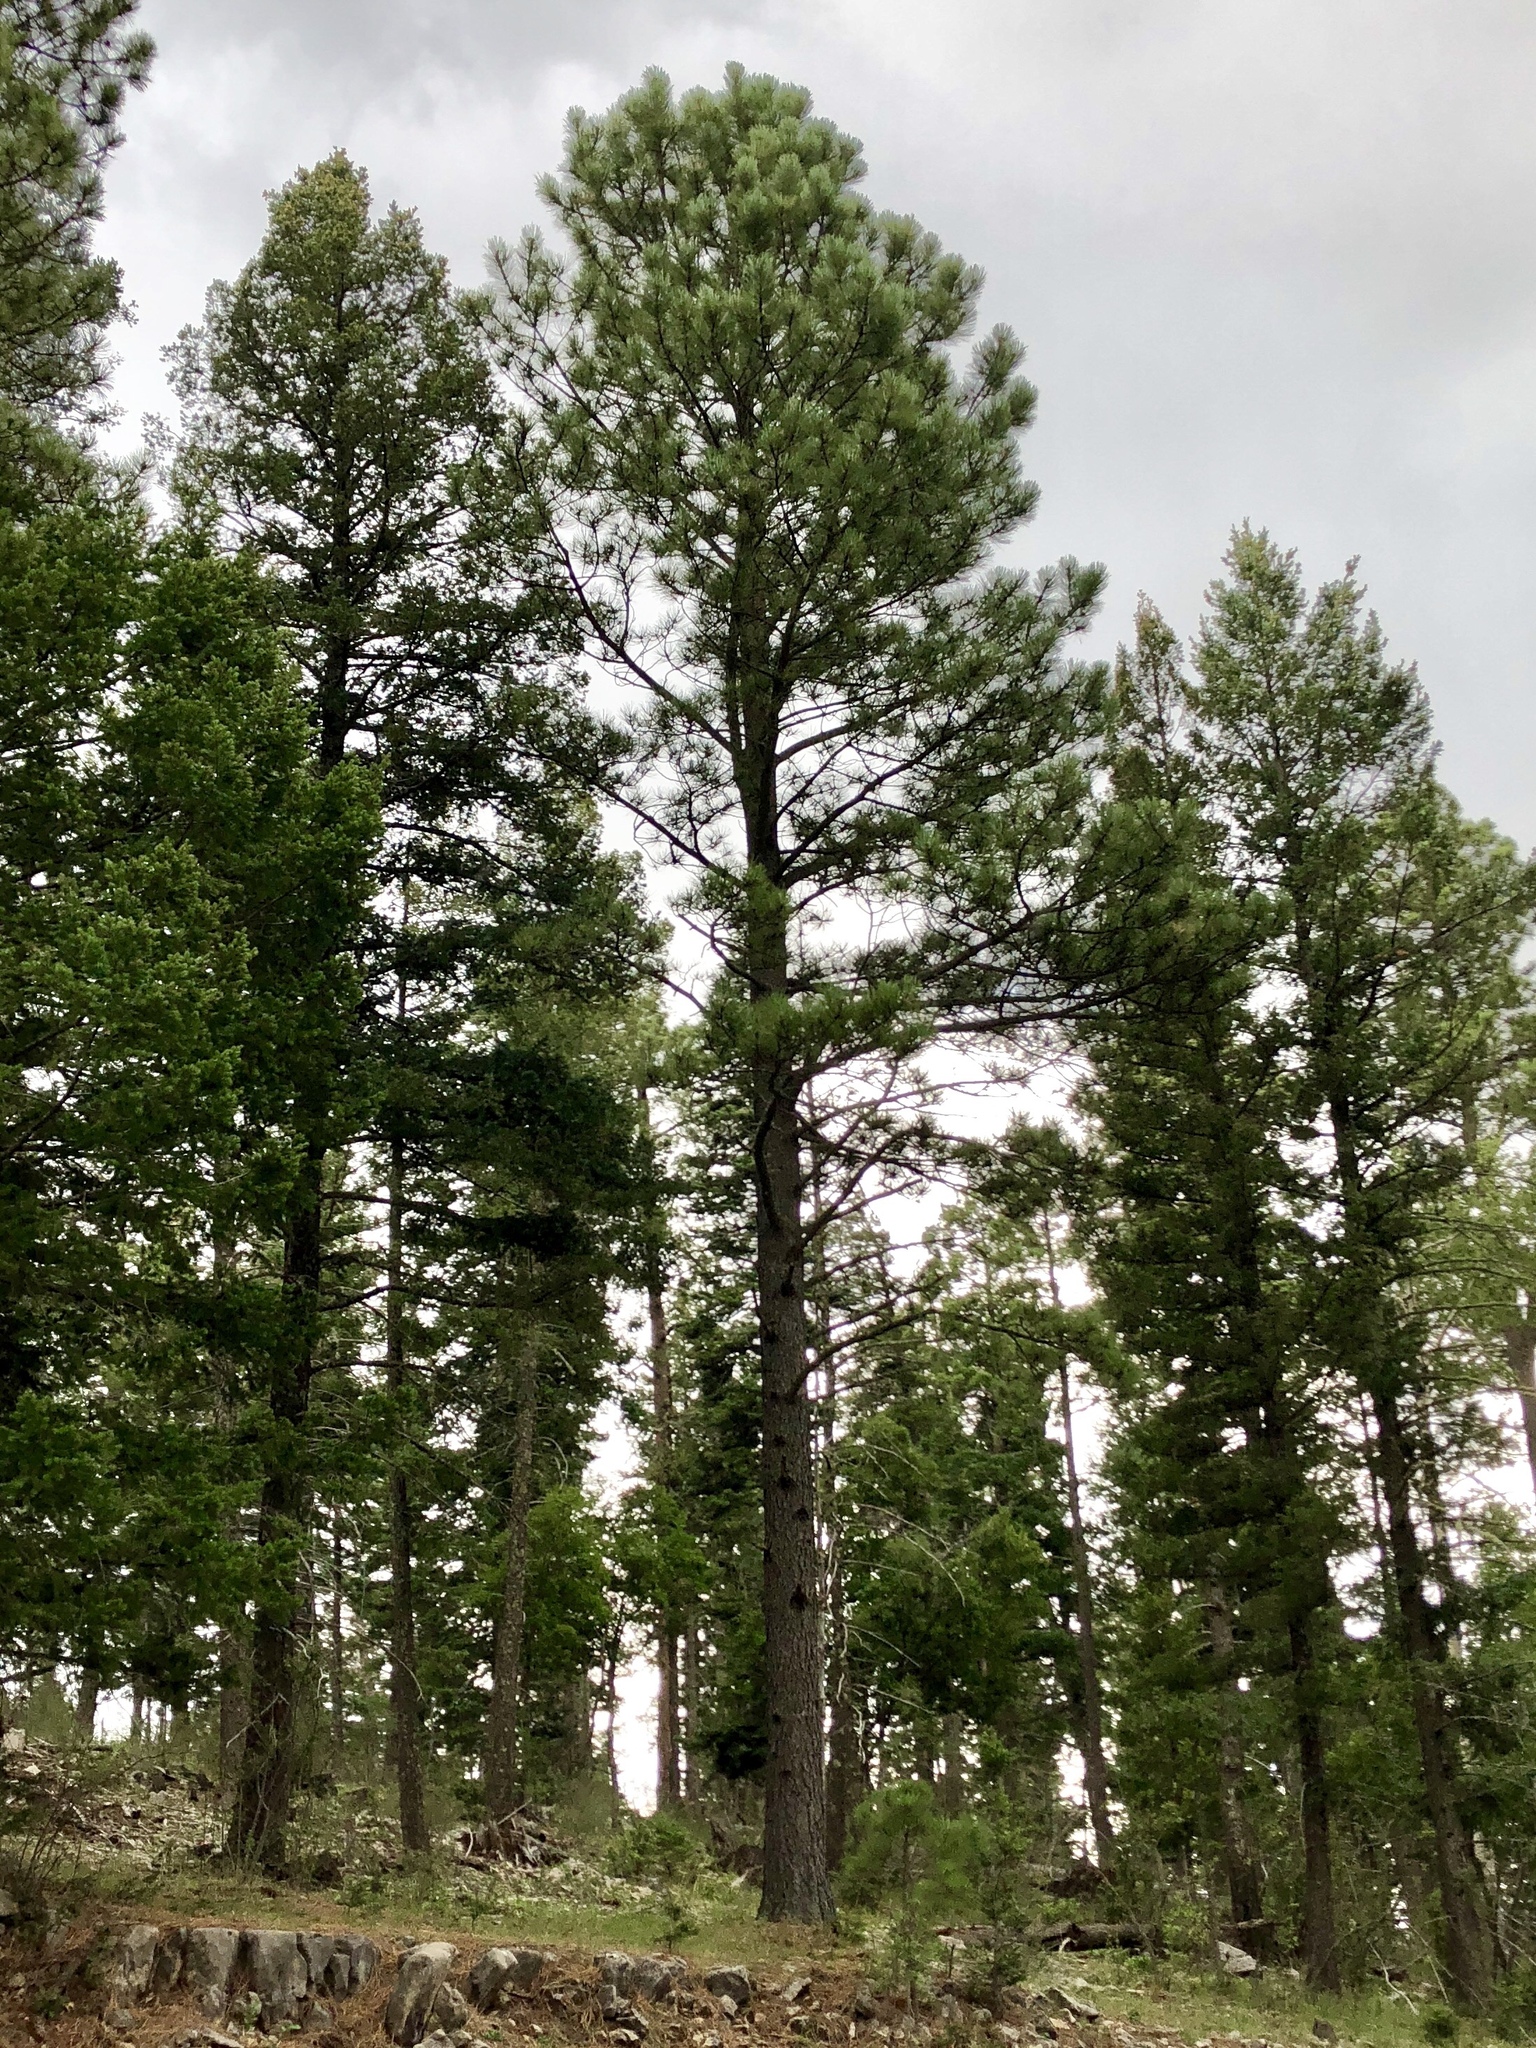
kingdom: Plantae
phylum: Tracheophyta
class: Pinopsida
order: Pinales
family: Pinaceae
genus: Pinus
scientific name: Pinus ponderosa
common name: Western yellow-pine
